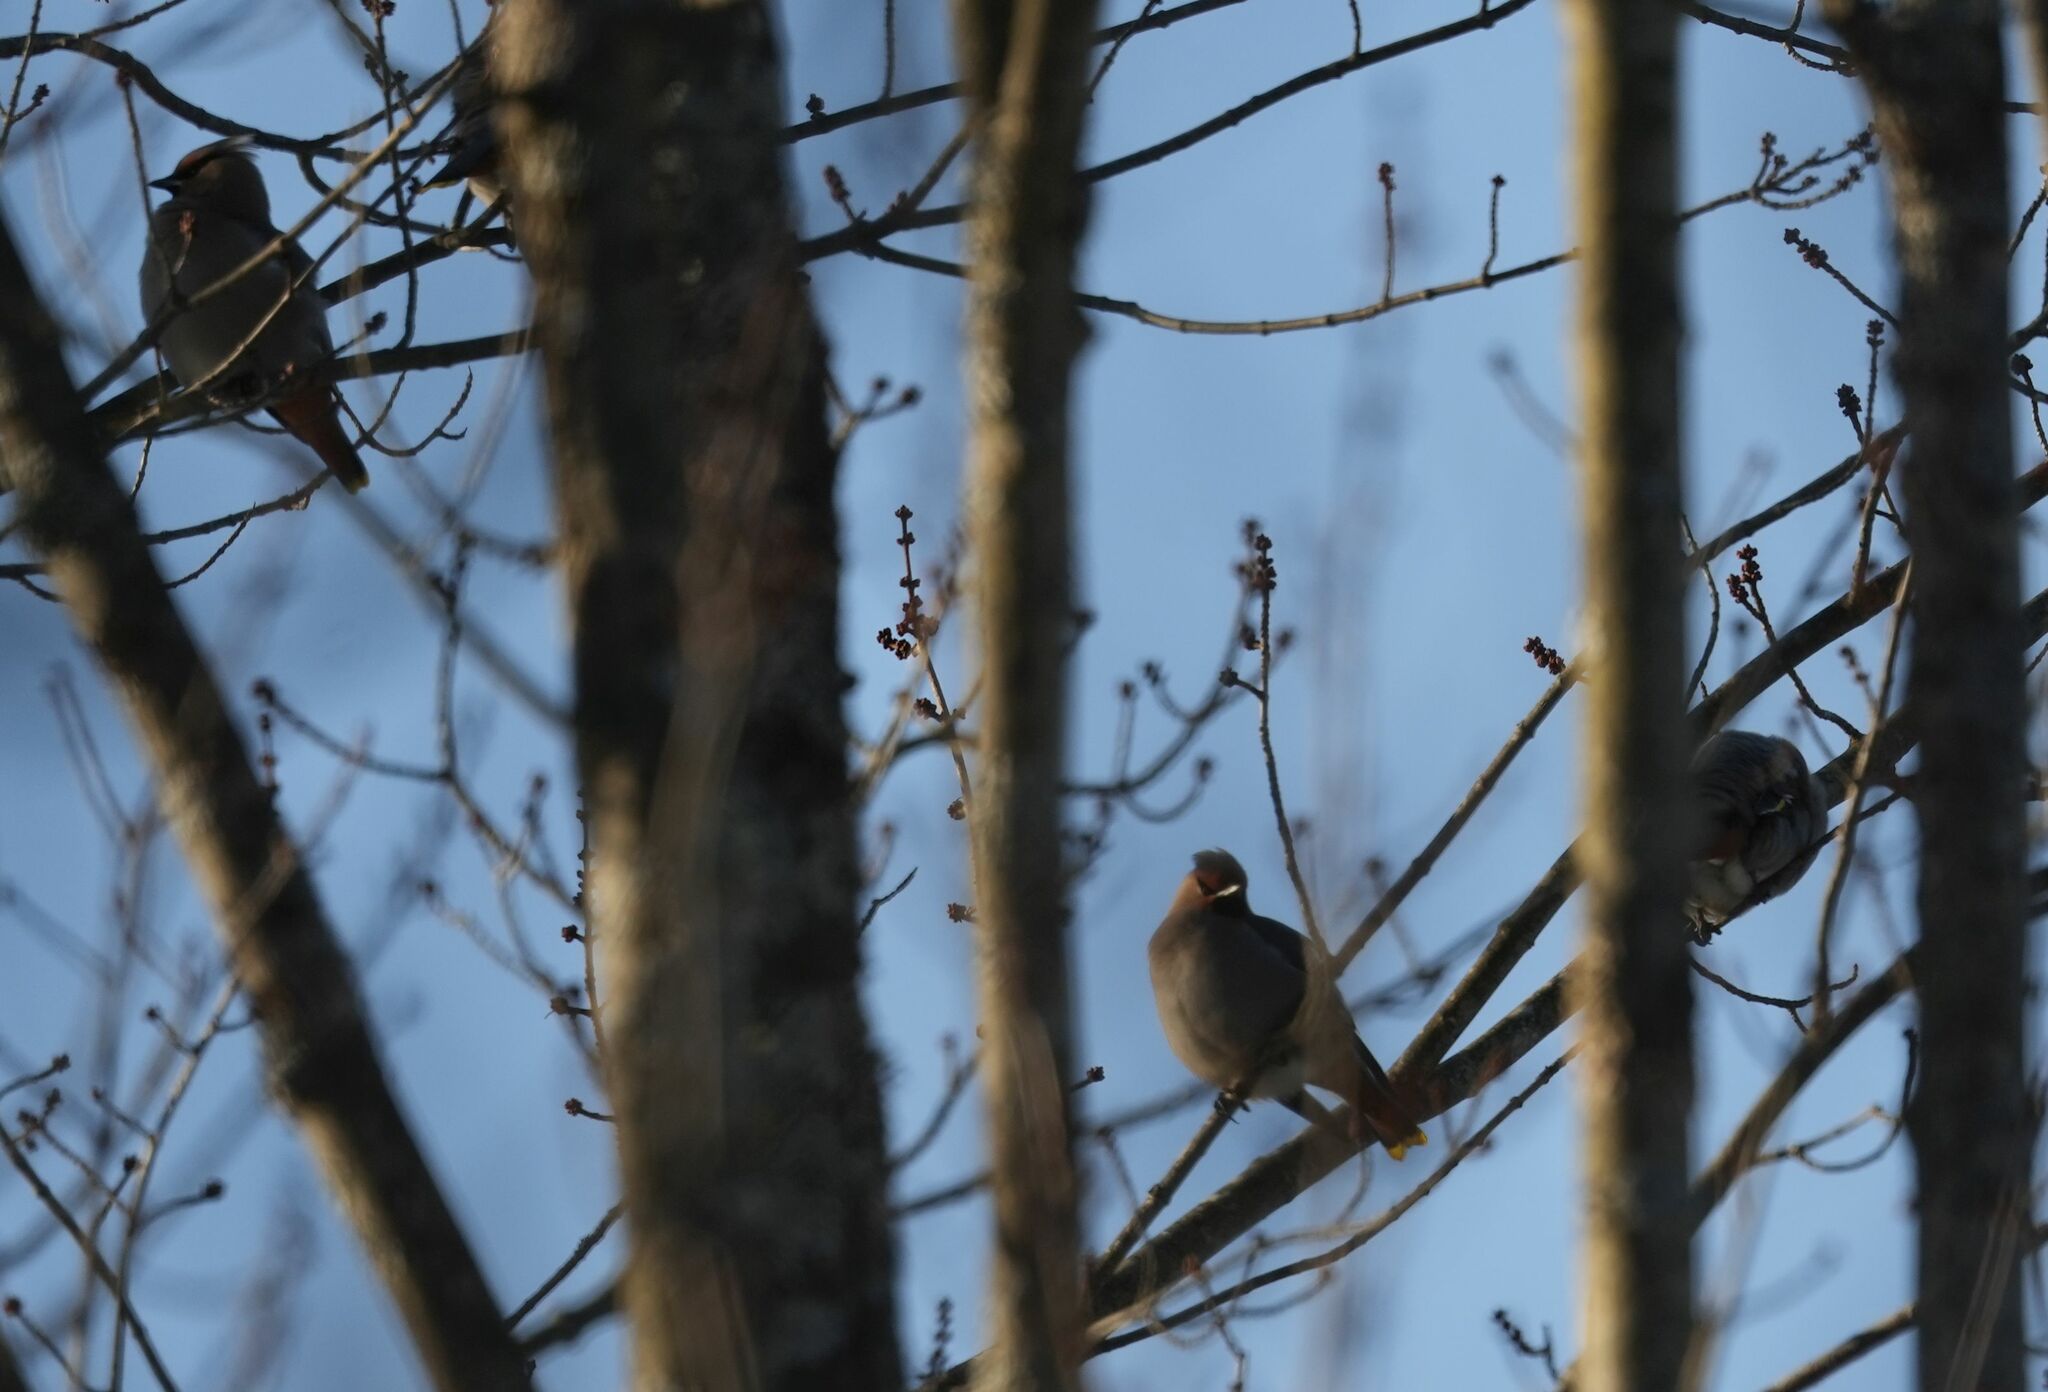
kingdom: Animalia
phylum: Chordata
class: Aves
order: Passeriformes
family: Bombycillidae
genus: Bombycilla
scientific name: Bombycilla garrulus
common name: Bohemian waxwing
